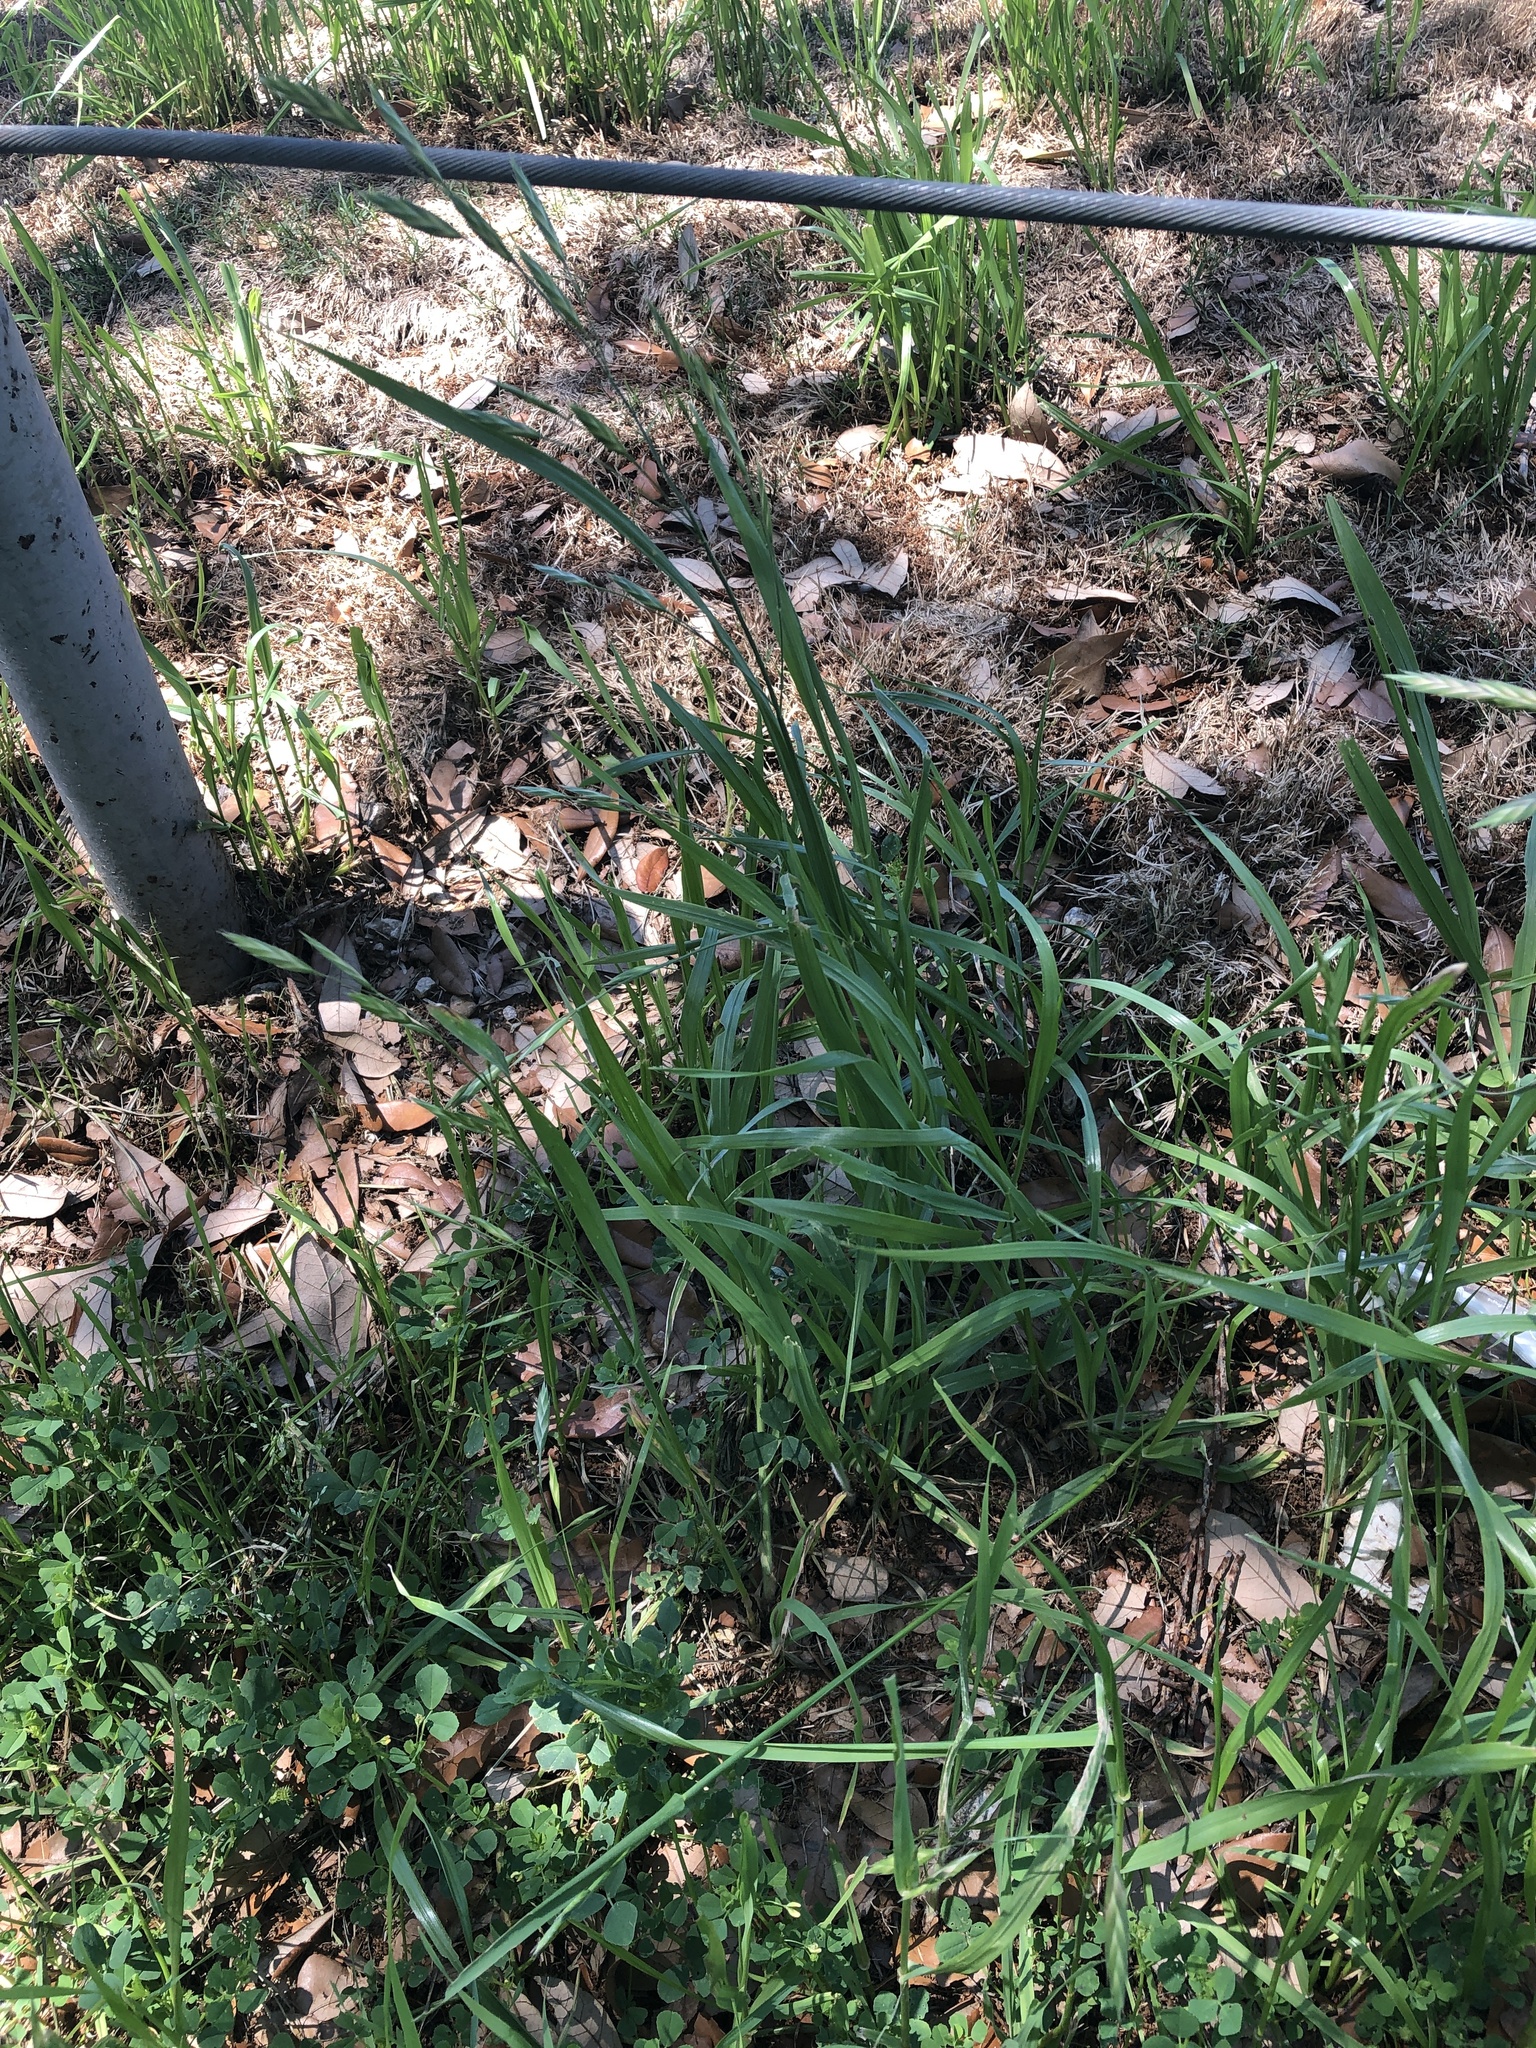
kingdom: Plantae
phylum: Tracheophyta
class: Liliopsida
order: Poales
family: Poaceae
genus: Bromus
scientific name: Bromus catharticus
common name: Rescuegrass
